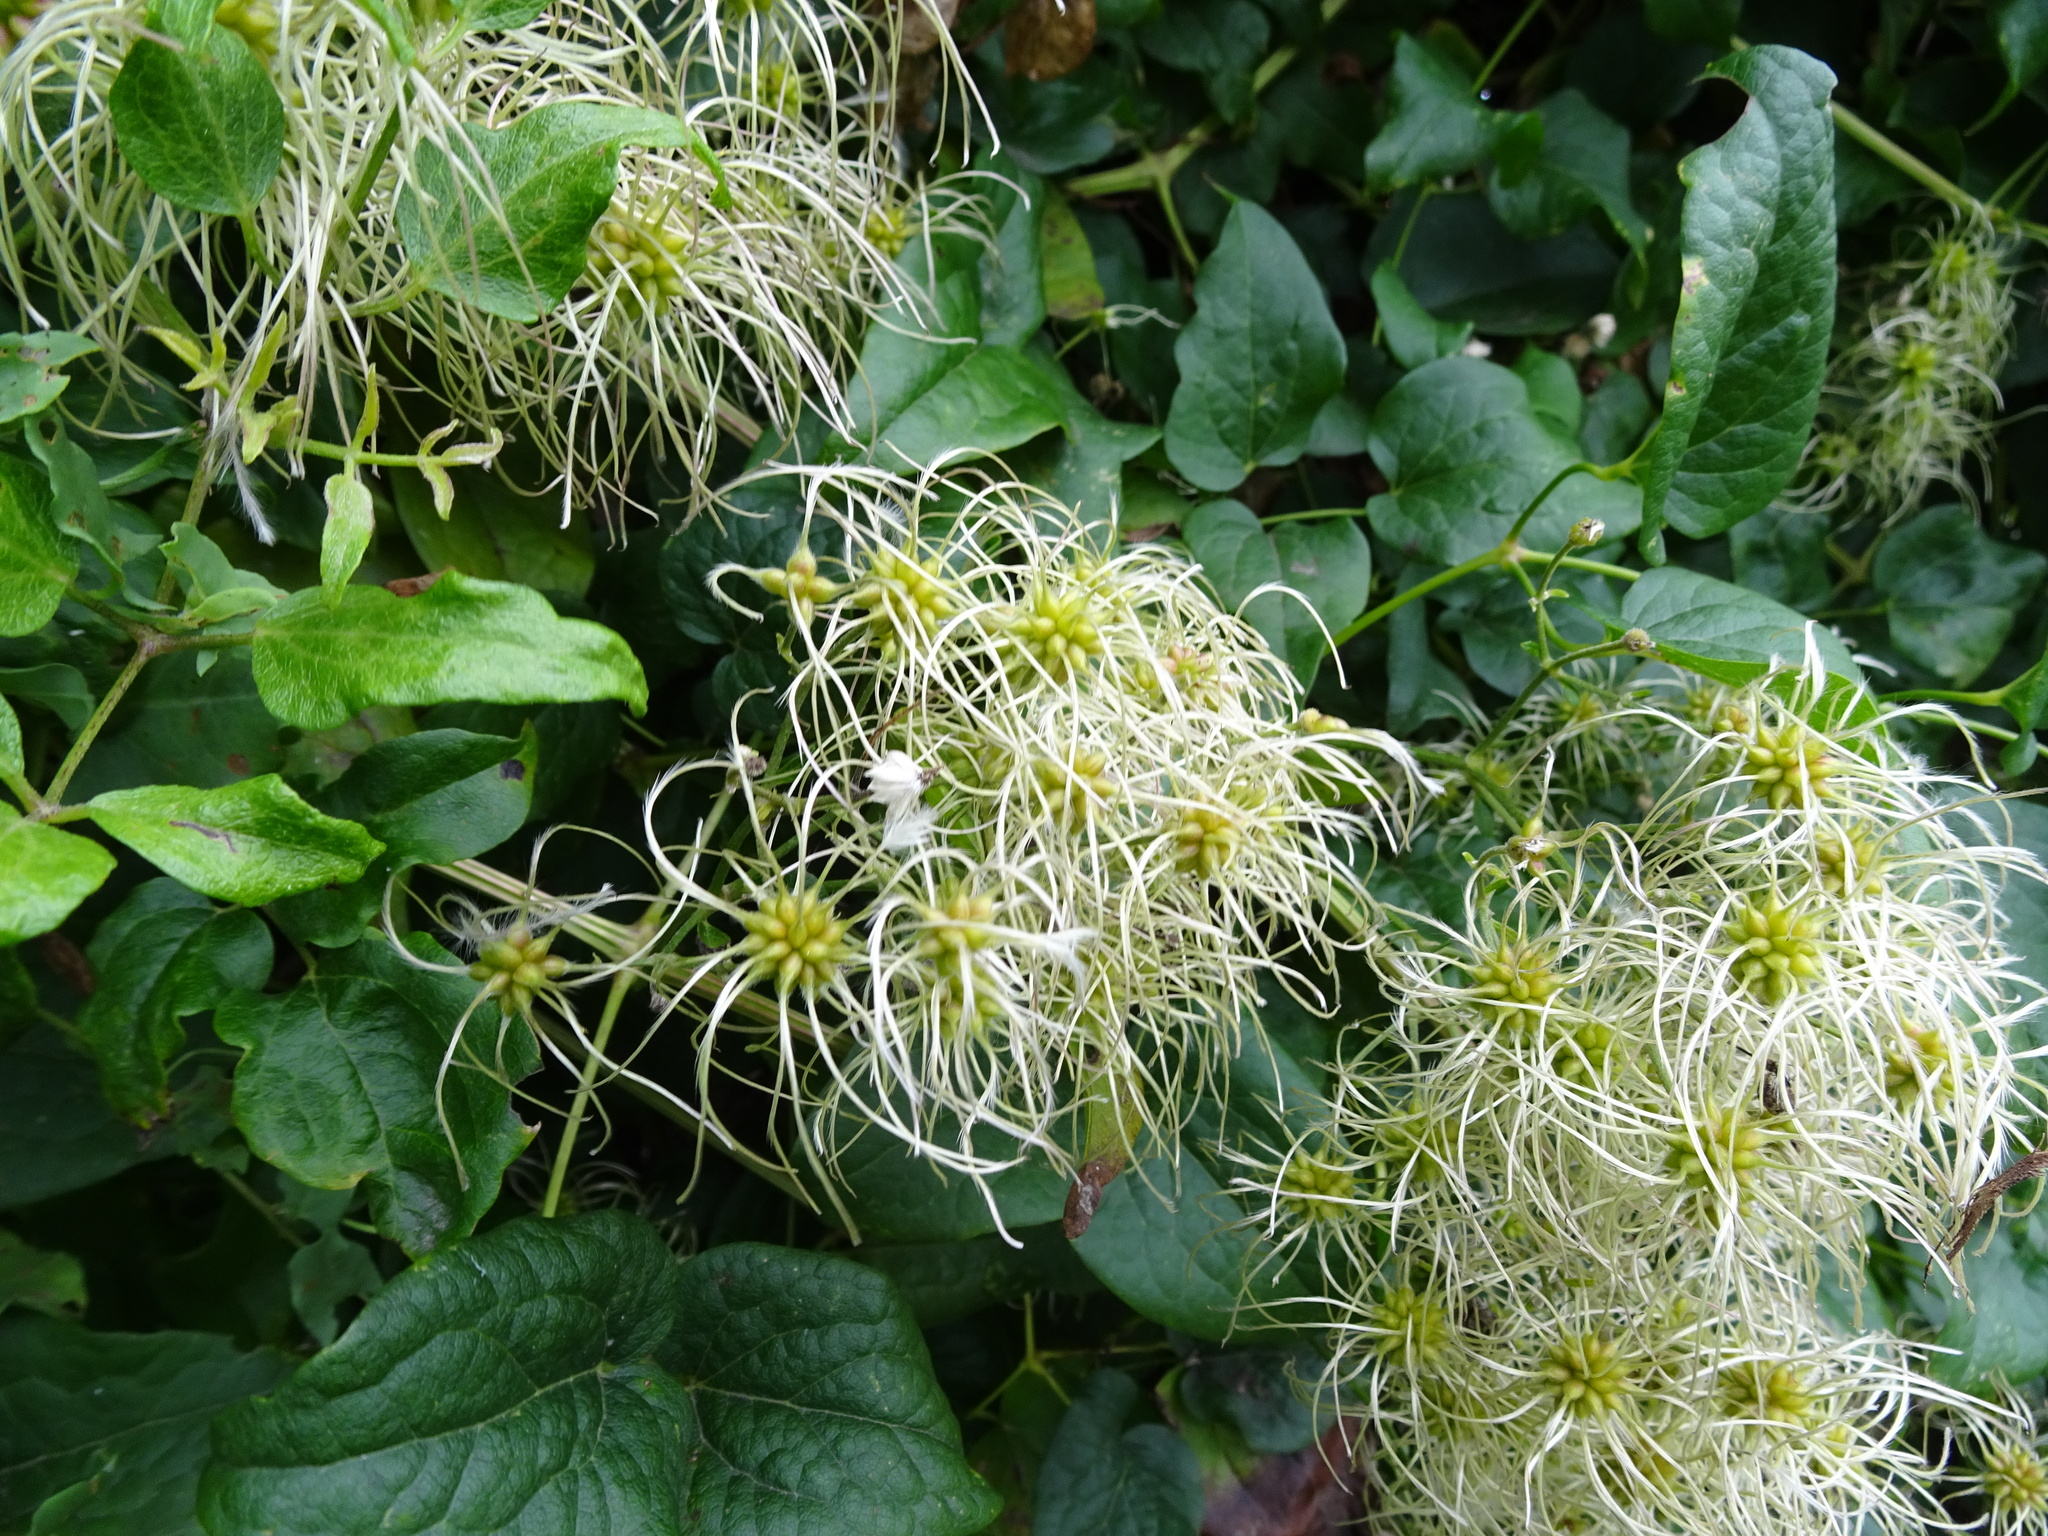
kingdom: Plantae
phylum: Tracheophyta
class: Magnoliopsida
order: Ranunculales
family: Ranunculaceae
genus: Clematis
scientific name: Clematis vitalba
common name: Evergreen clematis
